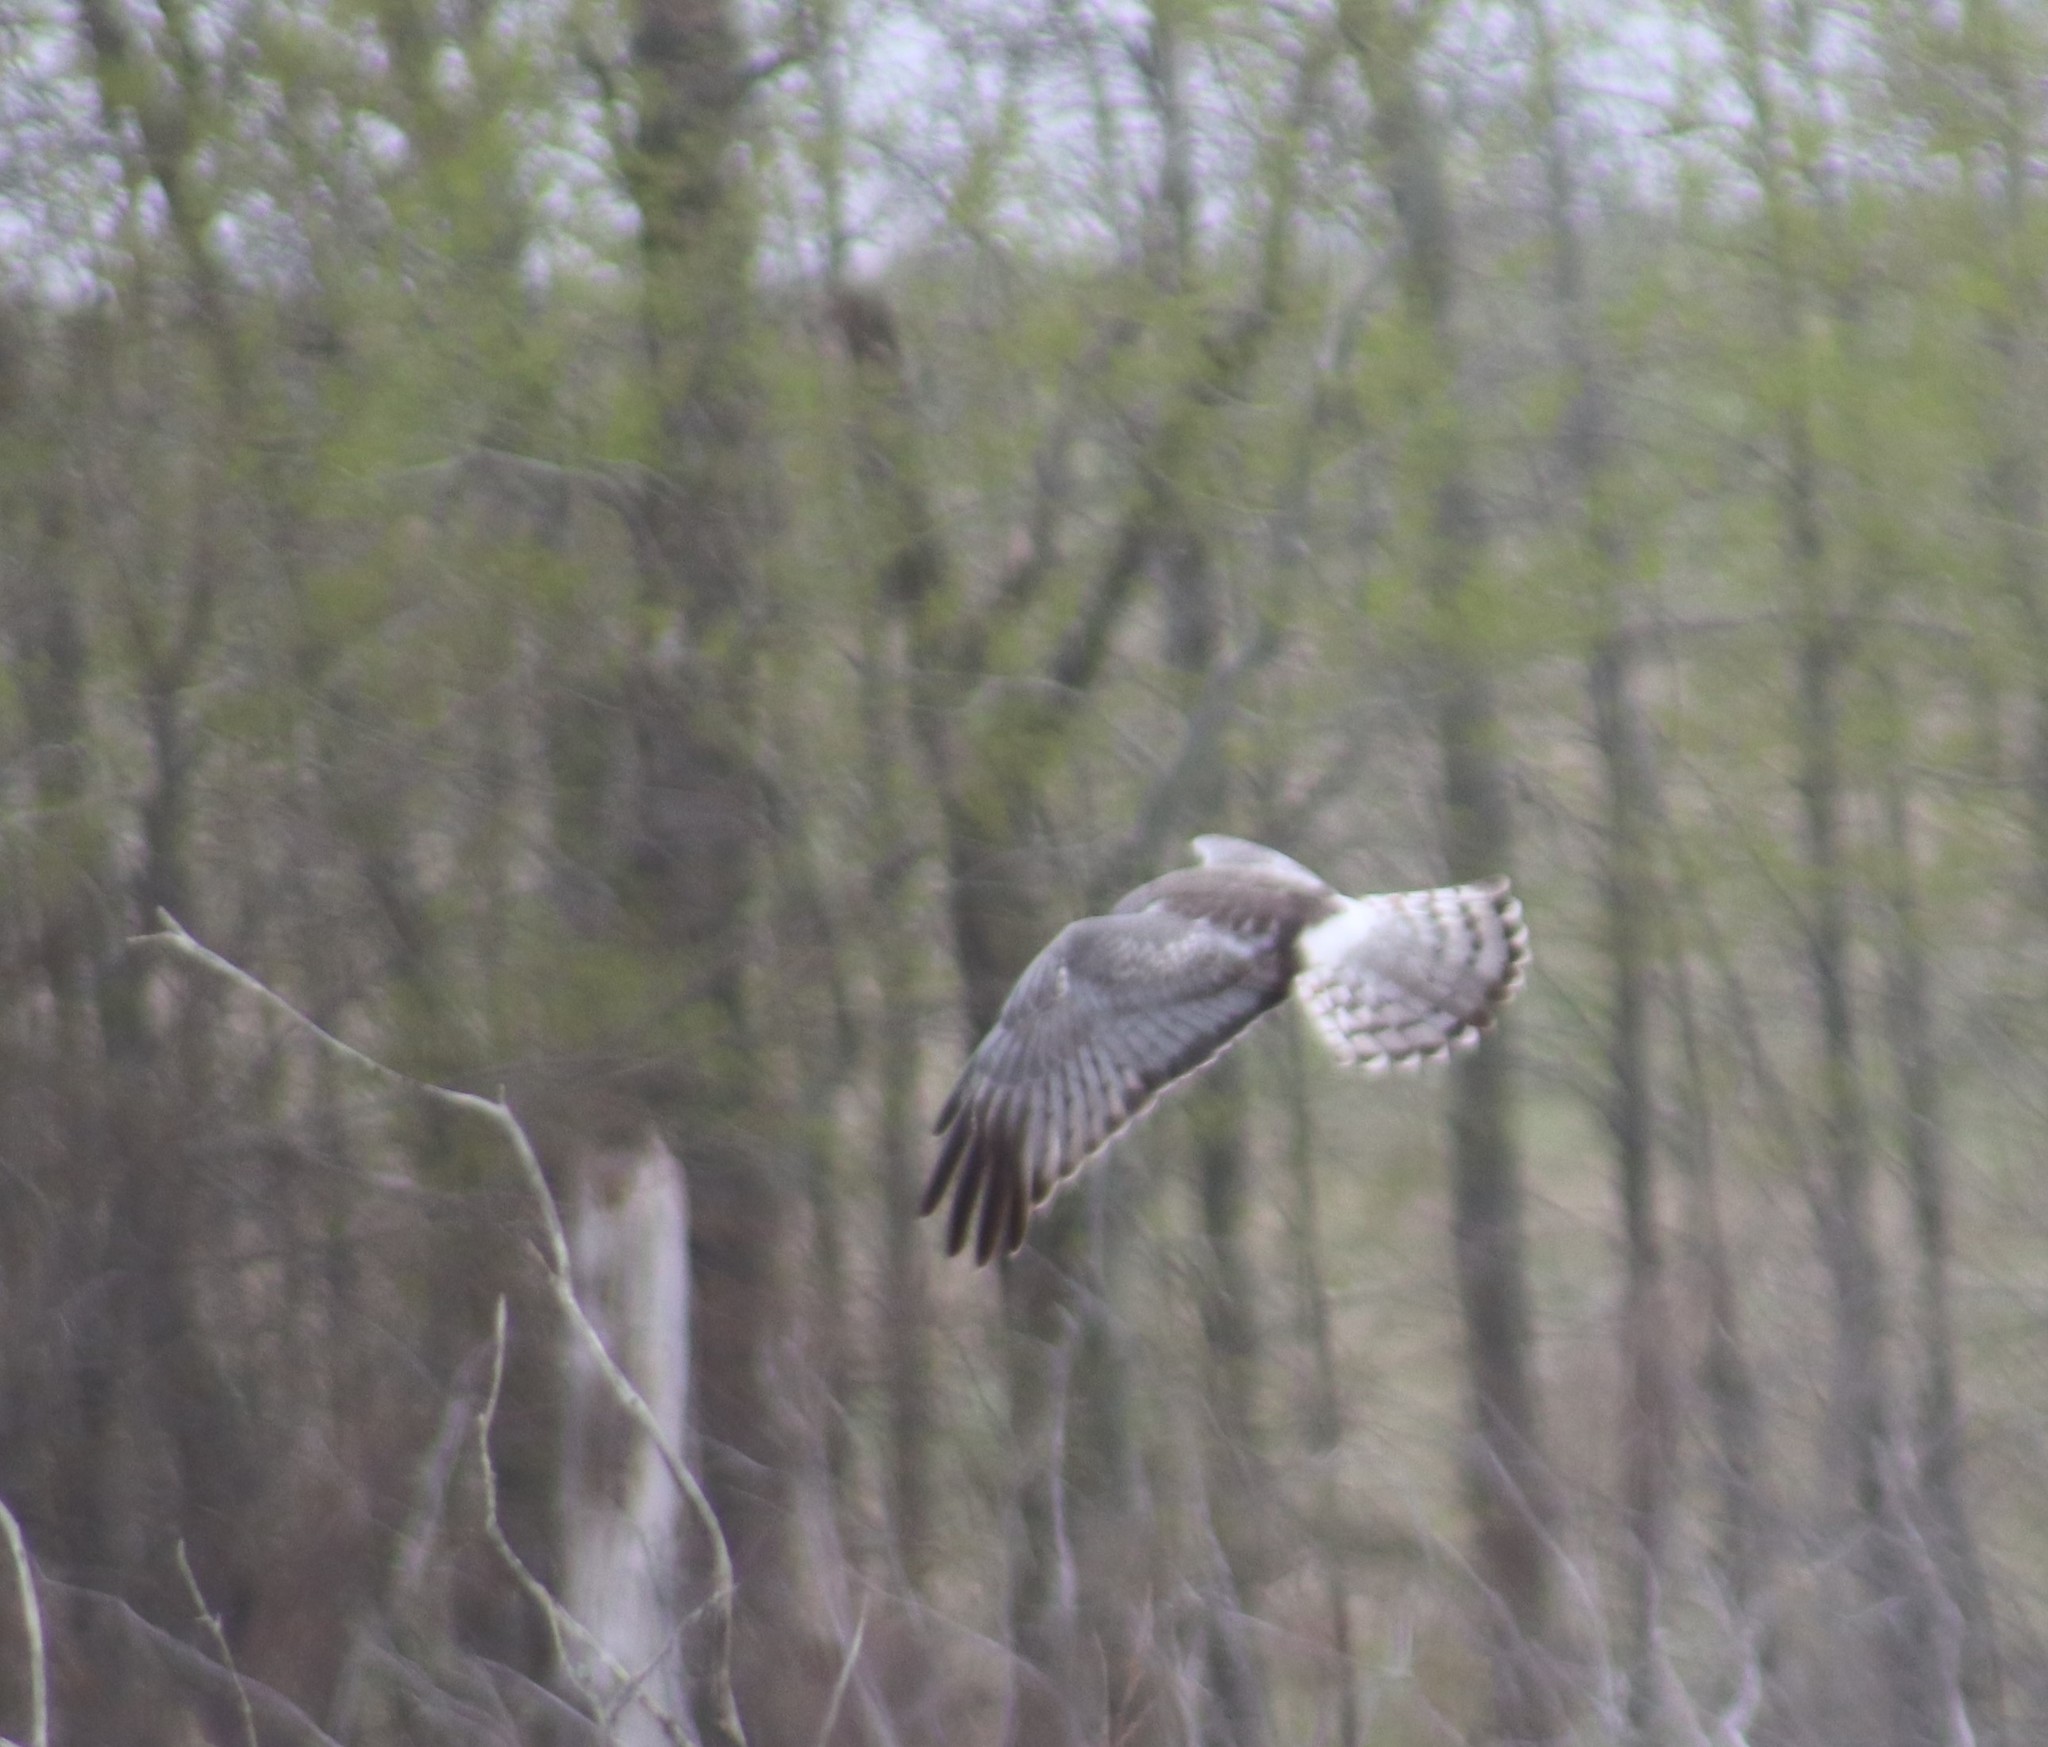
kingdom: Animalia
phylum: Chordata
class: Aves
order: Accipitriformes
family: Accipitridae
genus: Circus
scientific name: Circus cyaneus
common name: Hen harrier
